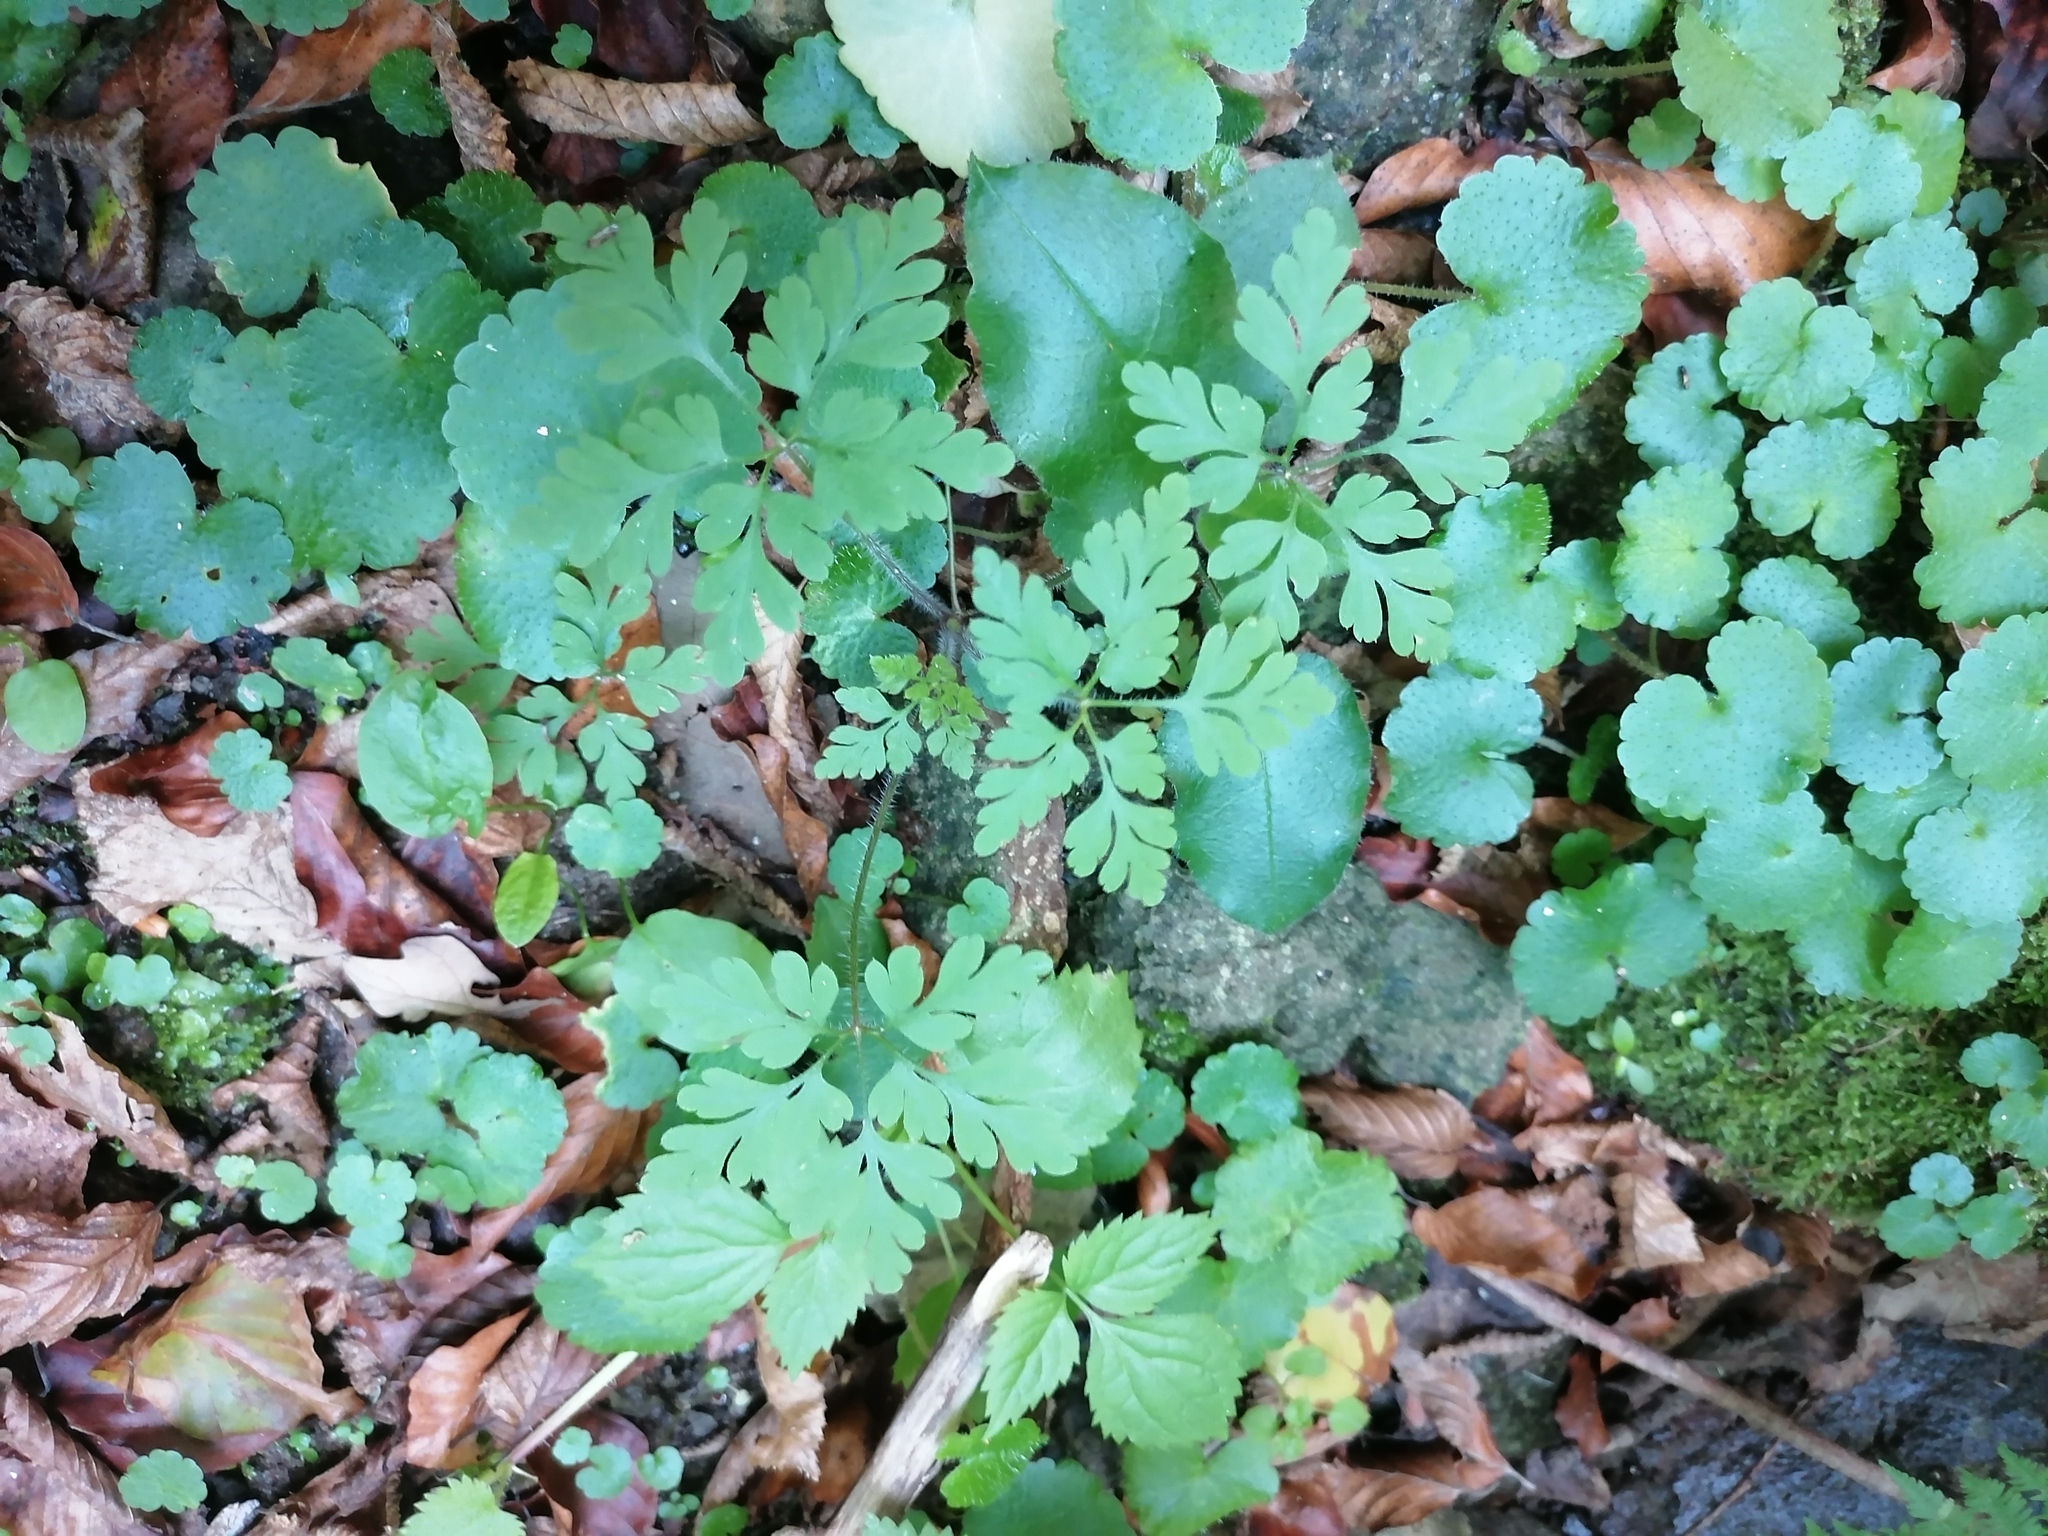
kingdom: Plantae
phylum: Tracheophyta
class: Magnoliopsida
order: Geraniales
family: Geraniaceae
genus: Geranium
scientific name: Geranium robertianum
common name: Herb-robert
